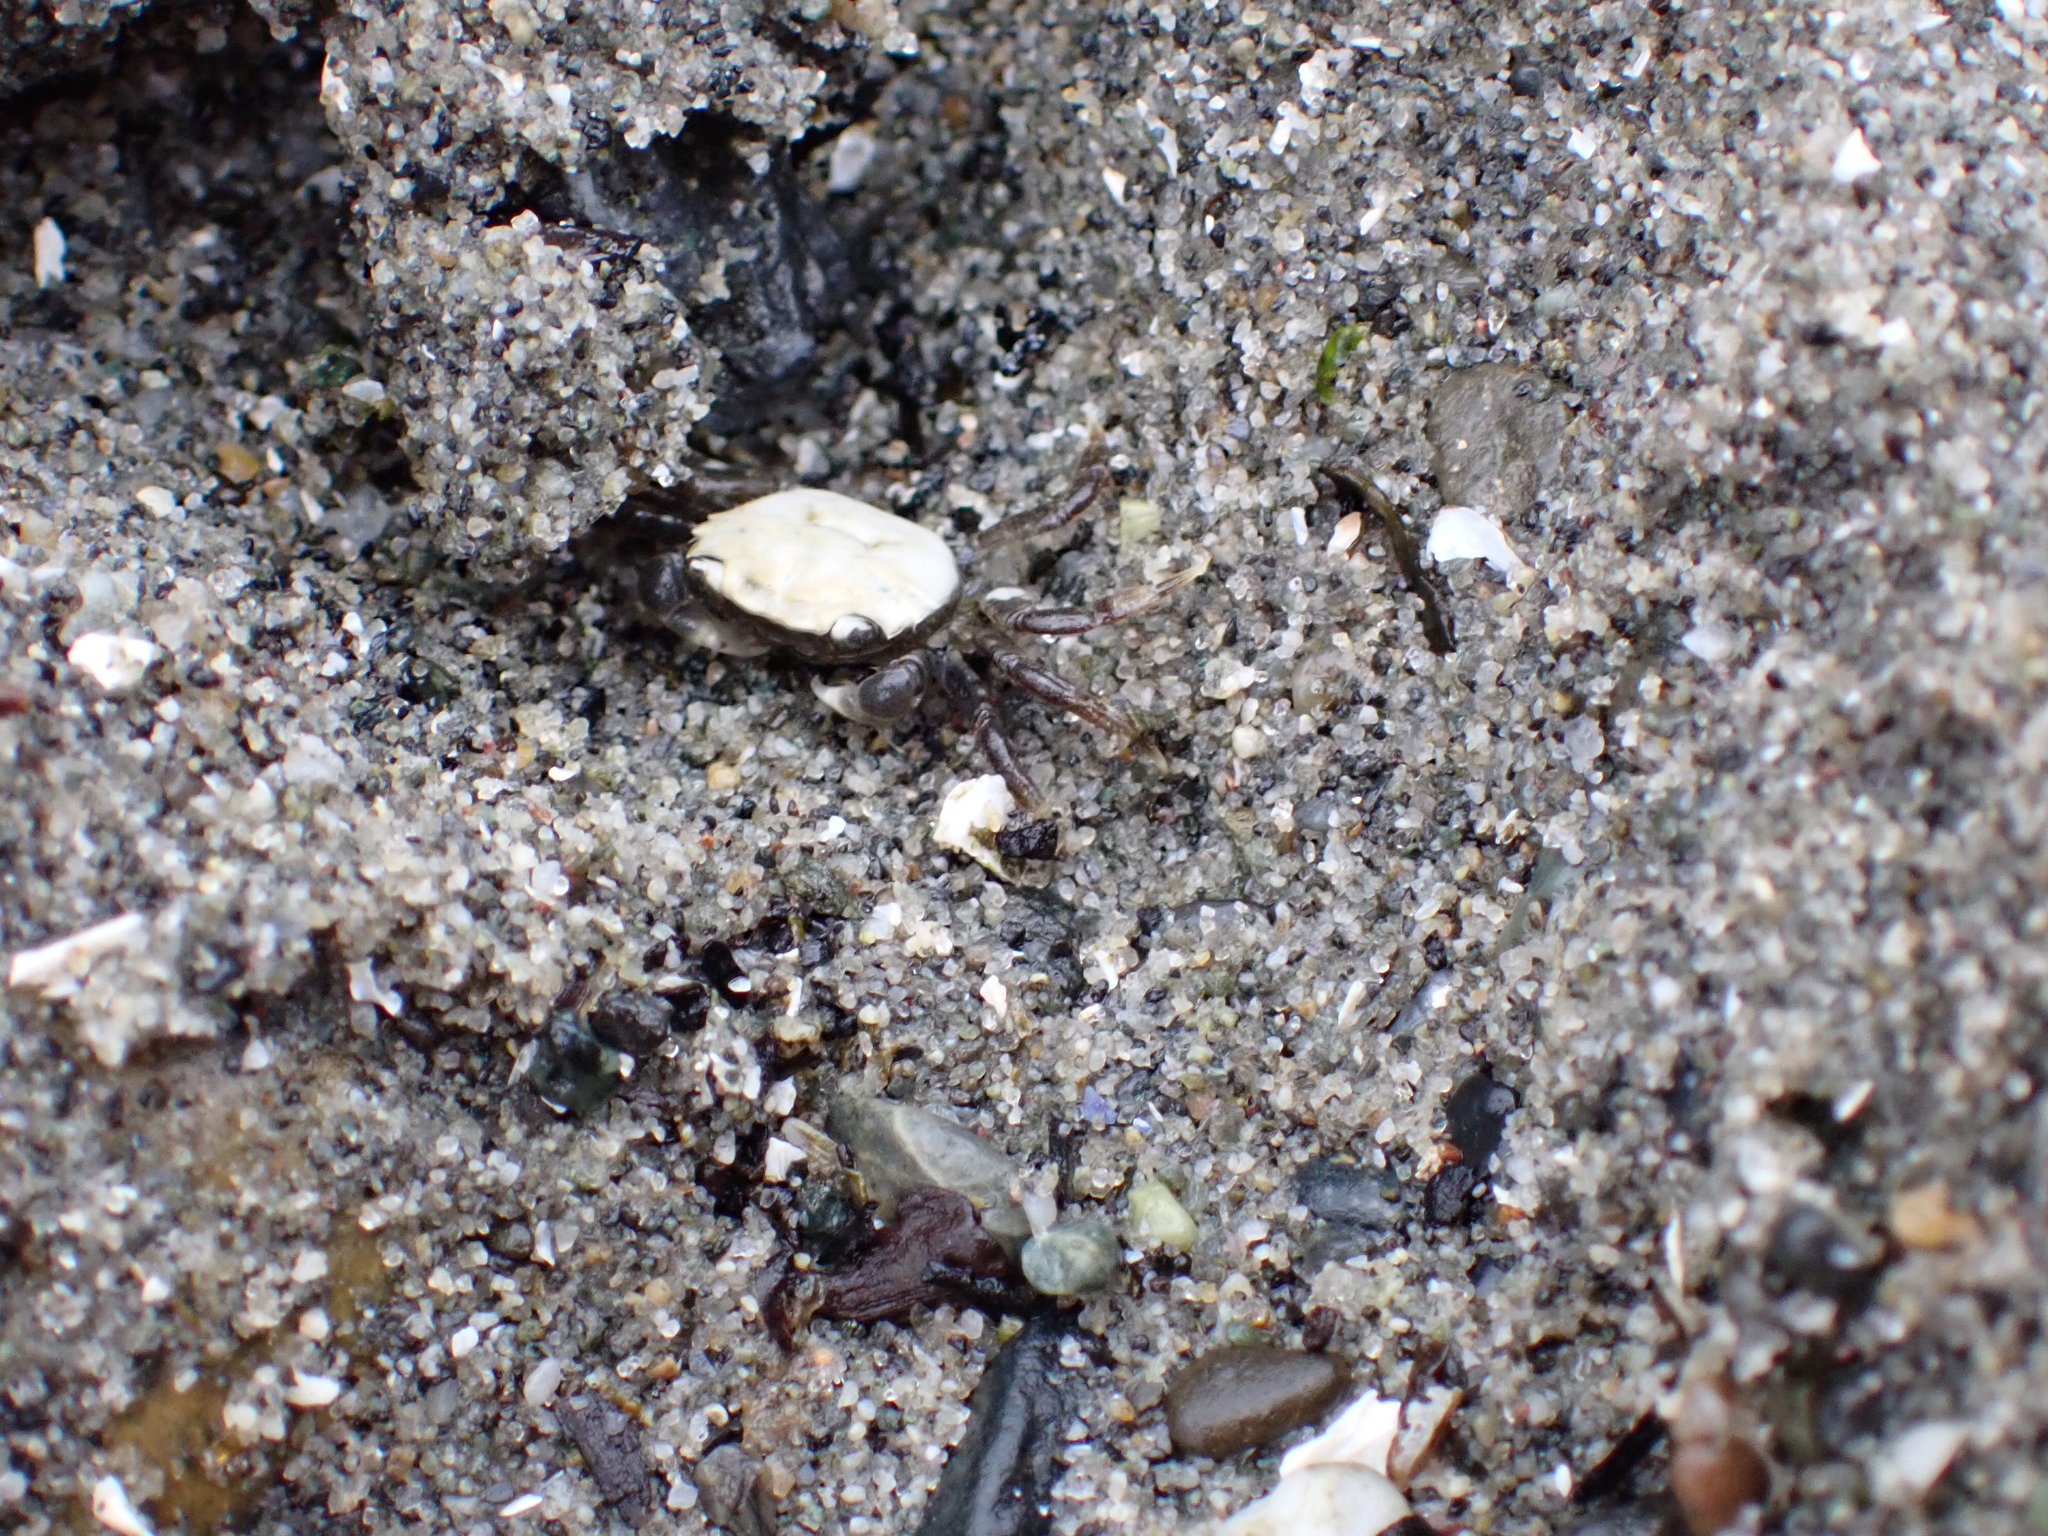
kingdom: Animalia
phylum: Arthropoda
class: Malacostraca
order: Decapoda
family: Varunidae
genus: Hemigrapsus
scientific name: Hemigrapsus oregonensis
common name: Yellow shore crab
